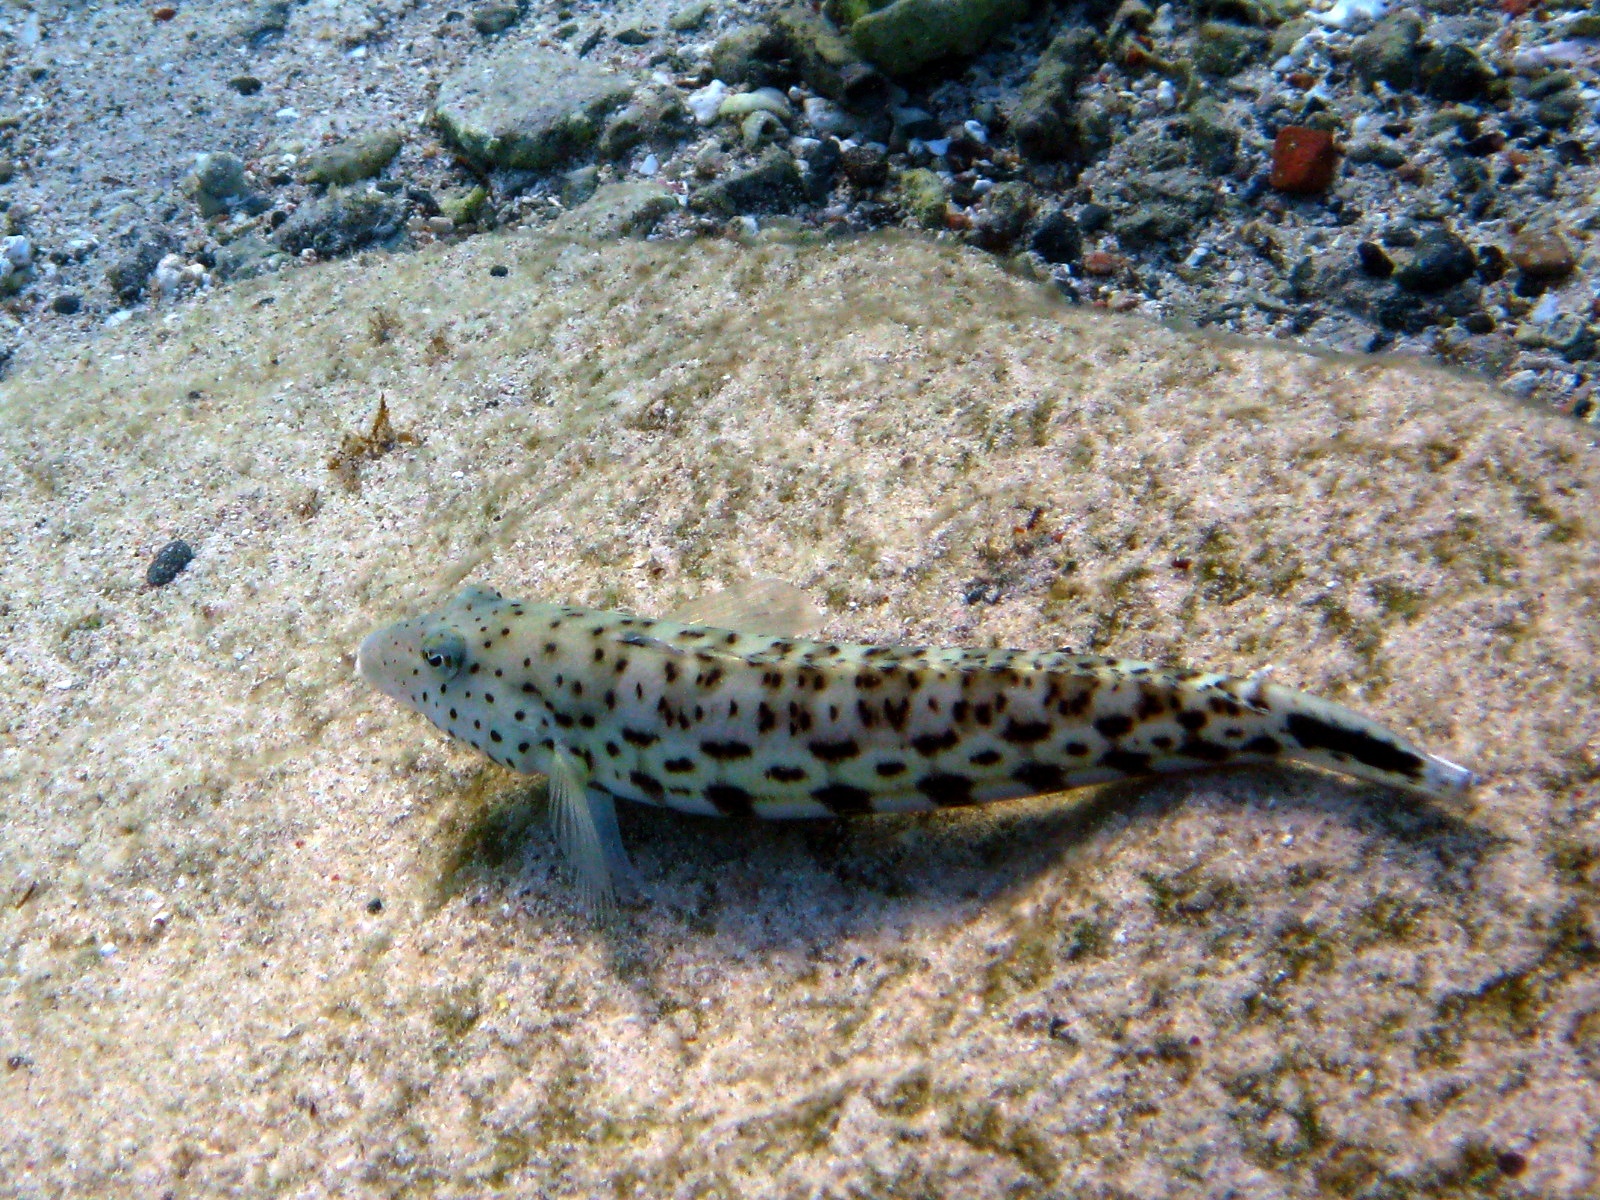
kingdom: Animalia
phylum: Chordata
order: Perciformes
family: Pinguipedidae
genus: Parapercis
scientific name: Parapercis hexophtalma
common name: Speckled sandperch
